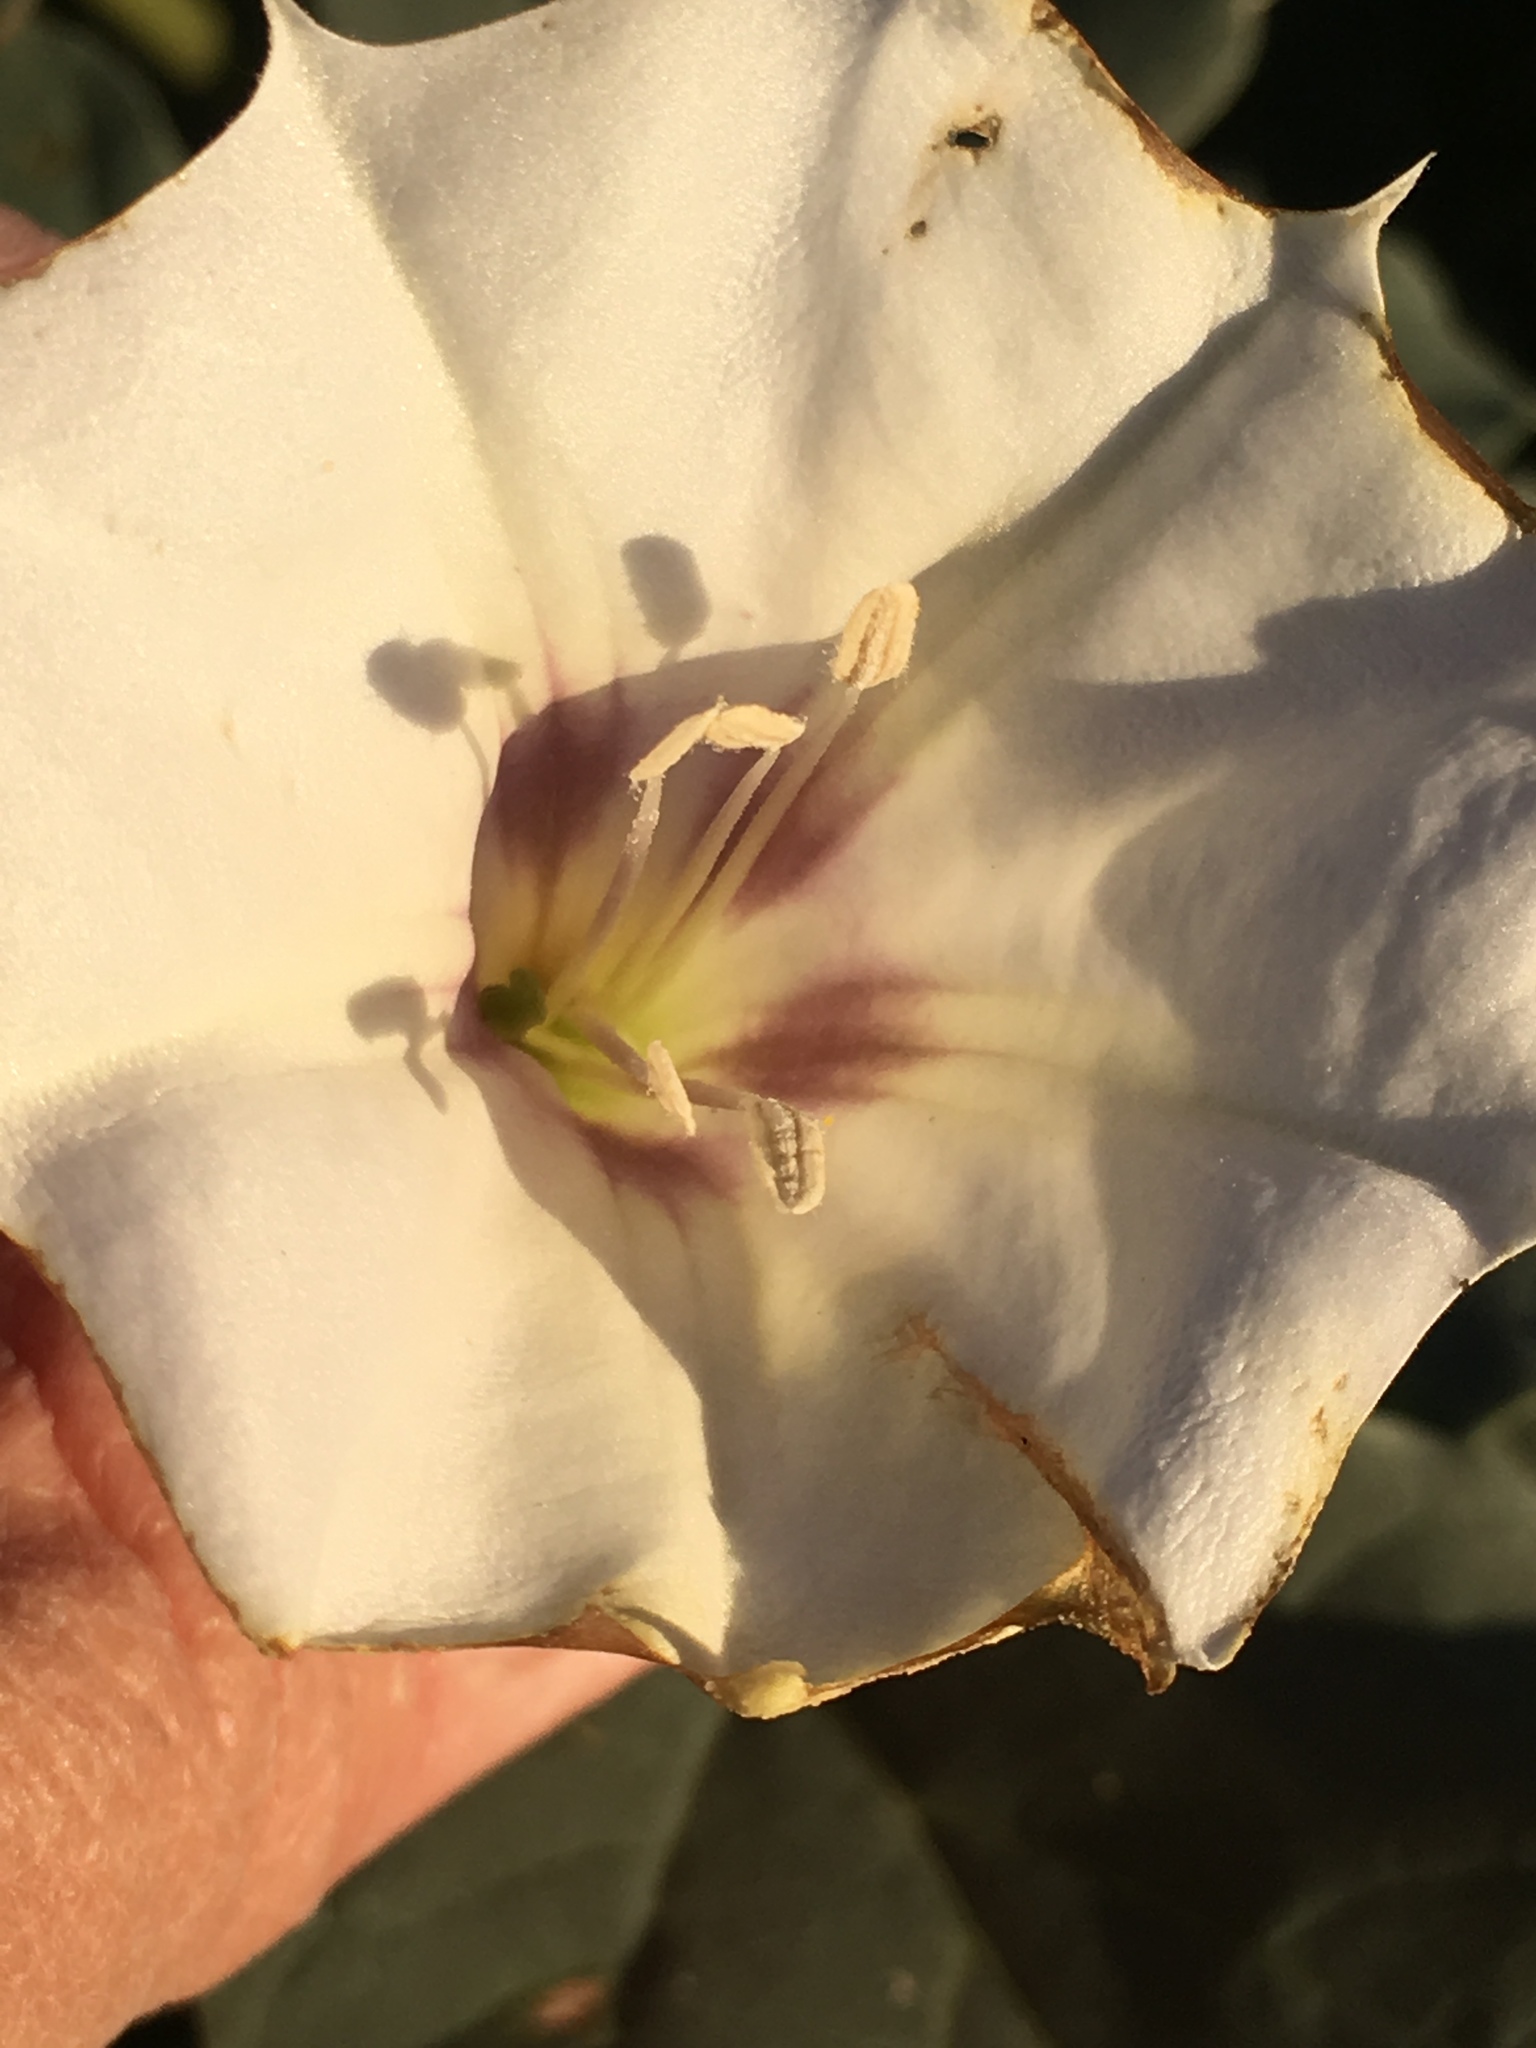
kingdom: Plantae
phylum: Tracheophyta
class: Magnoliopsida
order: Solanales
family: Solanaceae
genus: Datura
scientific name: Datura discolor
